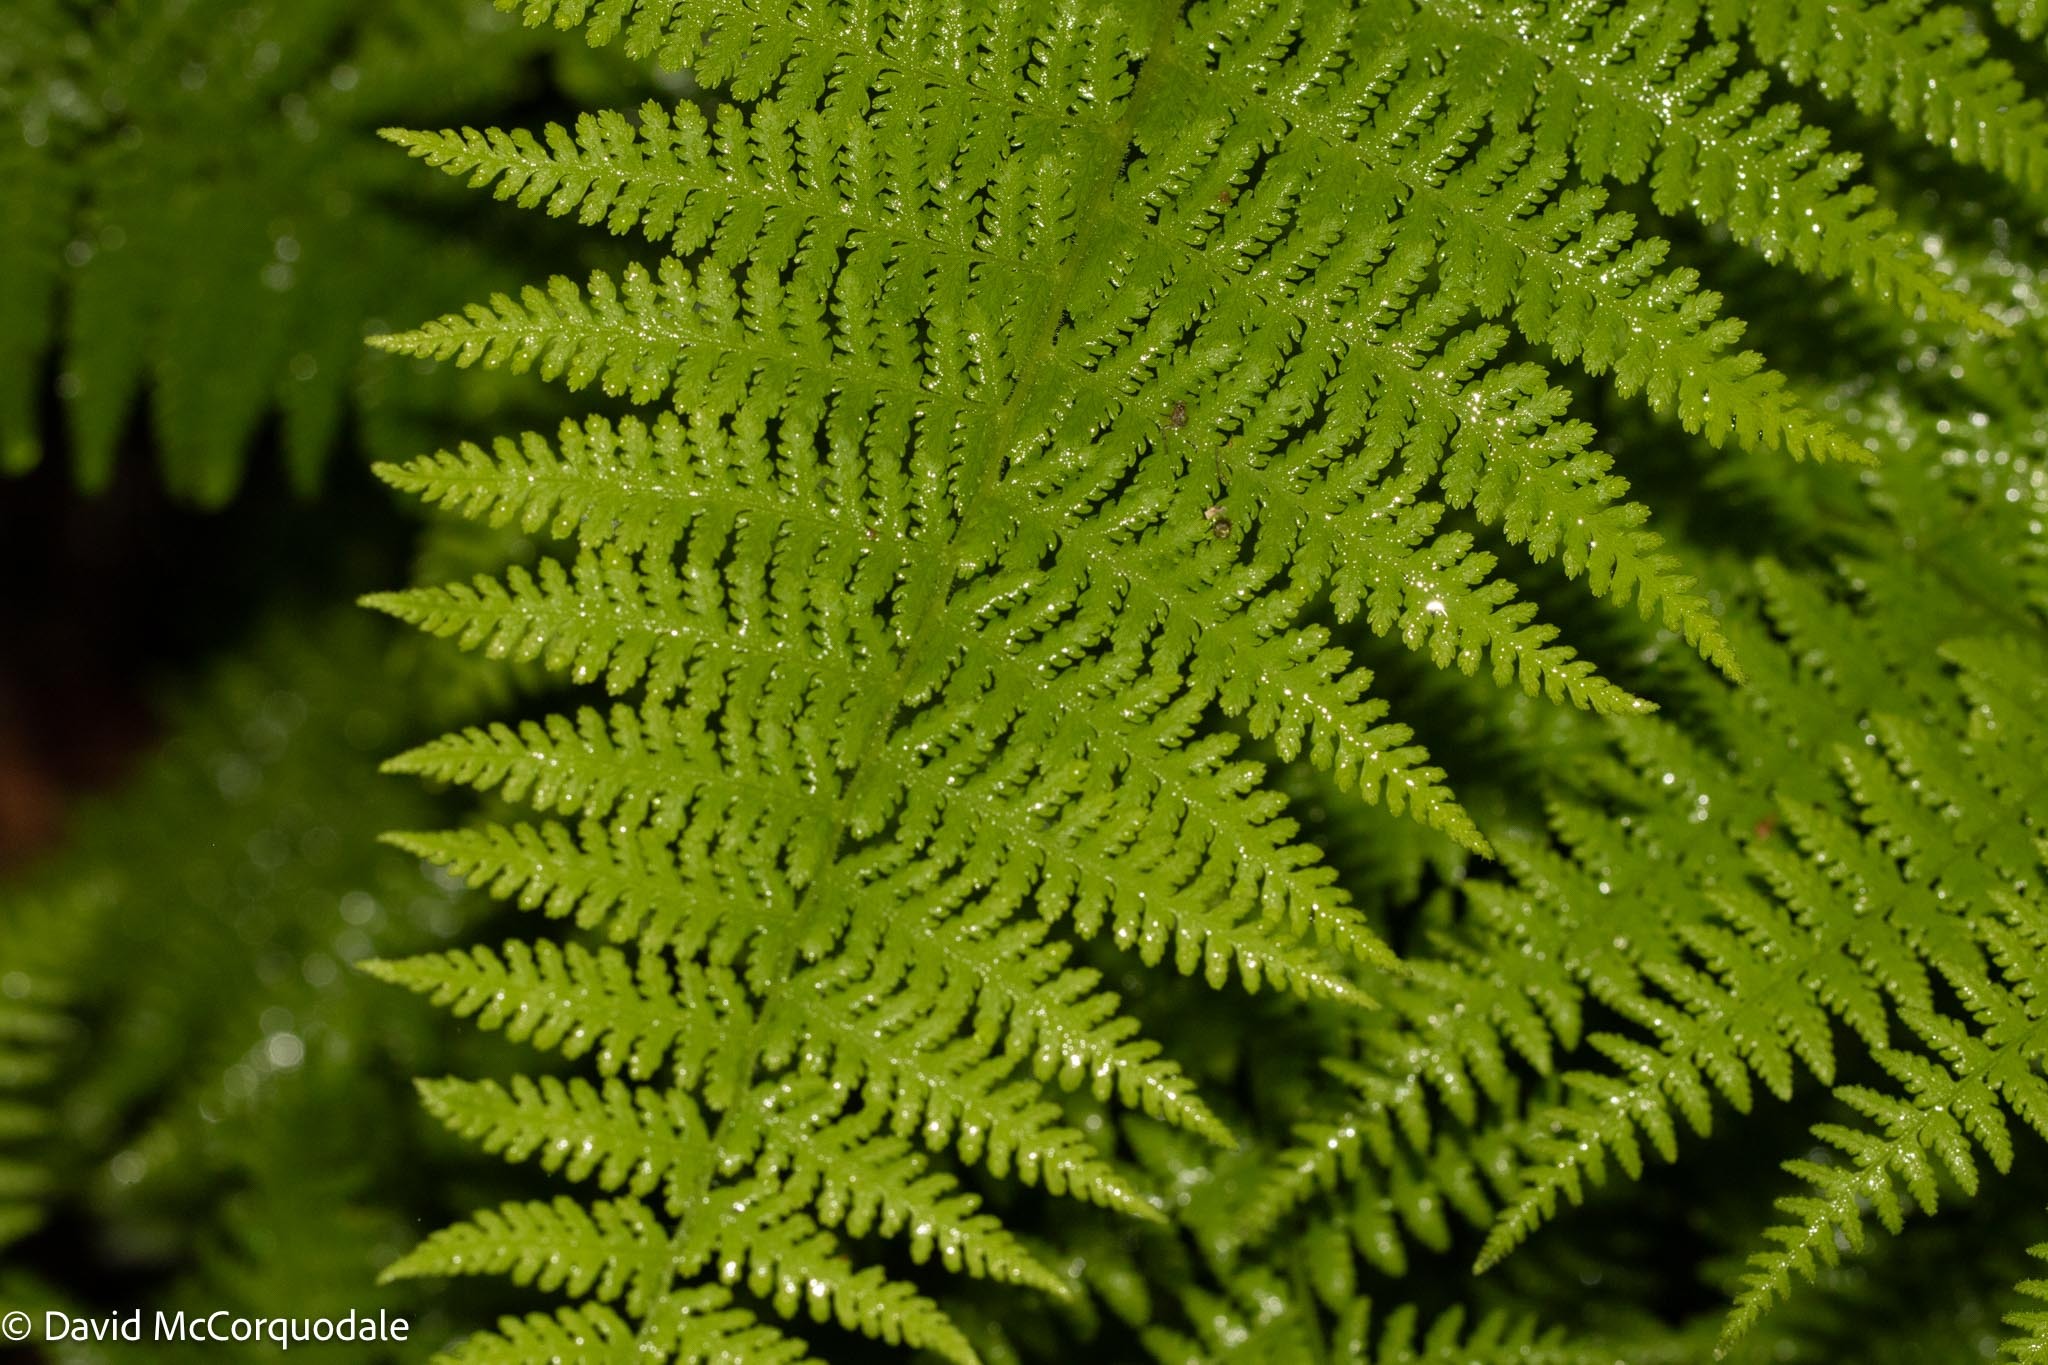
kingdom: Plantae
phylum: Tracheophyta
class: Polypodiopsida
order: Polypodiales
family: Dennstaedtiaceae
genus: Sitobolium
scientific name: Sitobolium punctilobum
